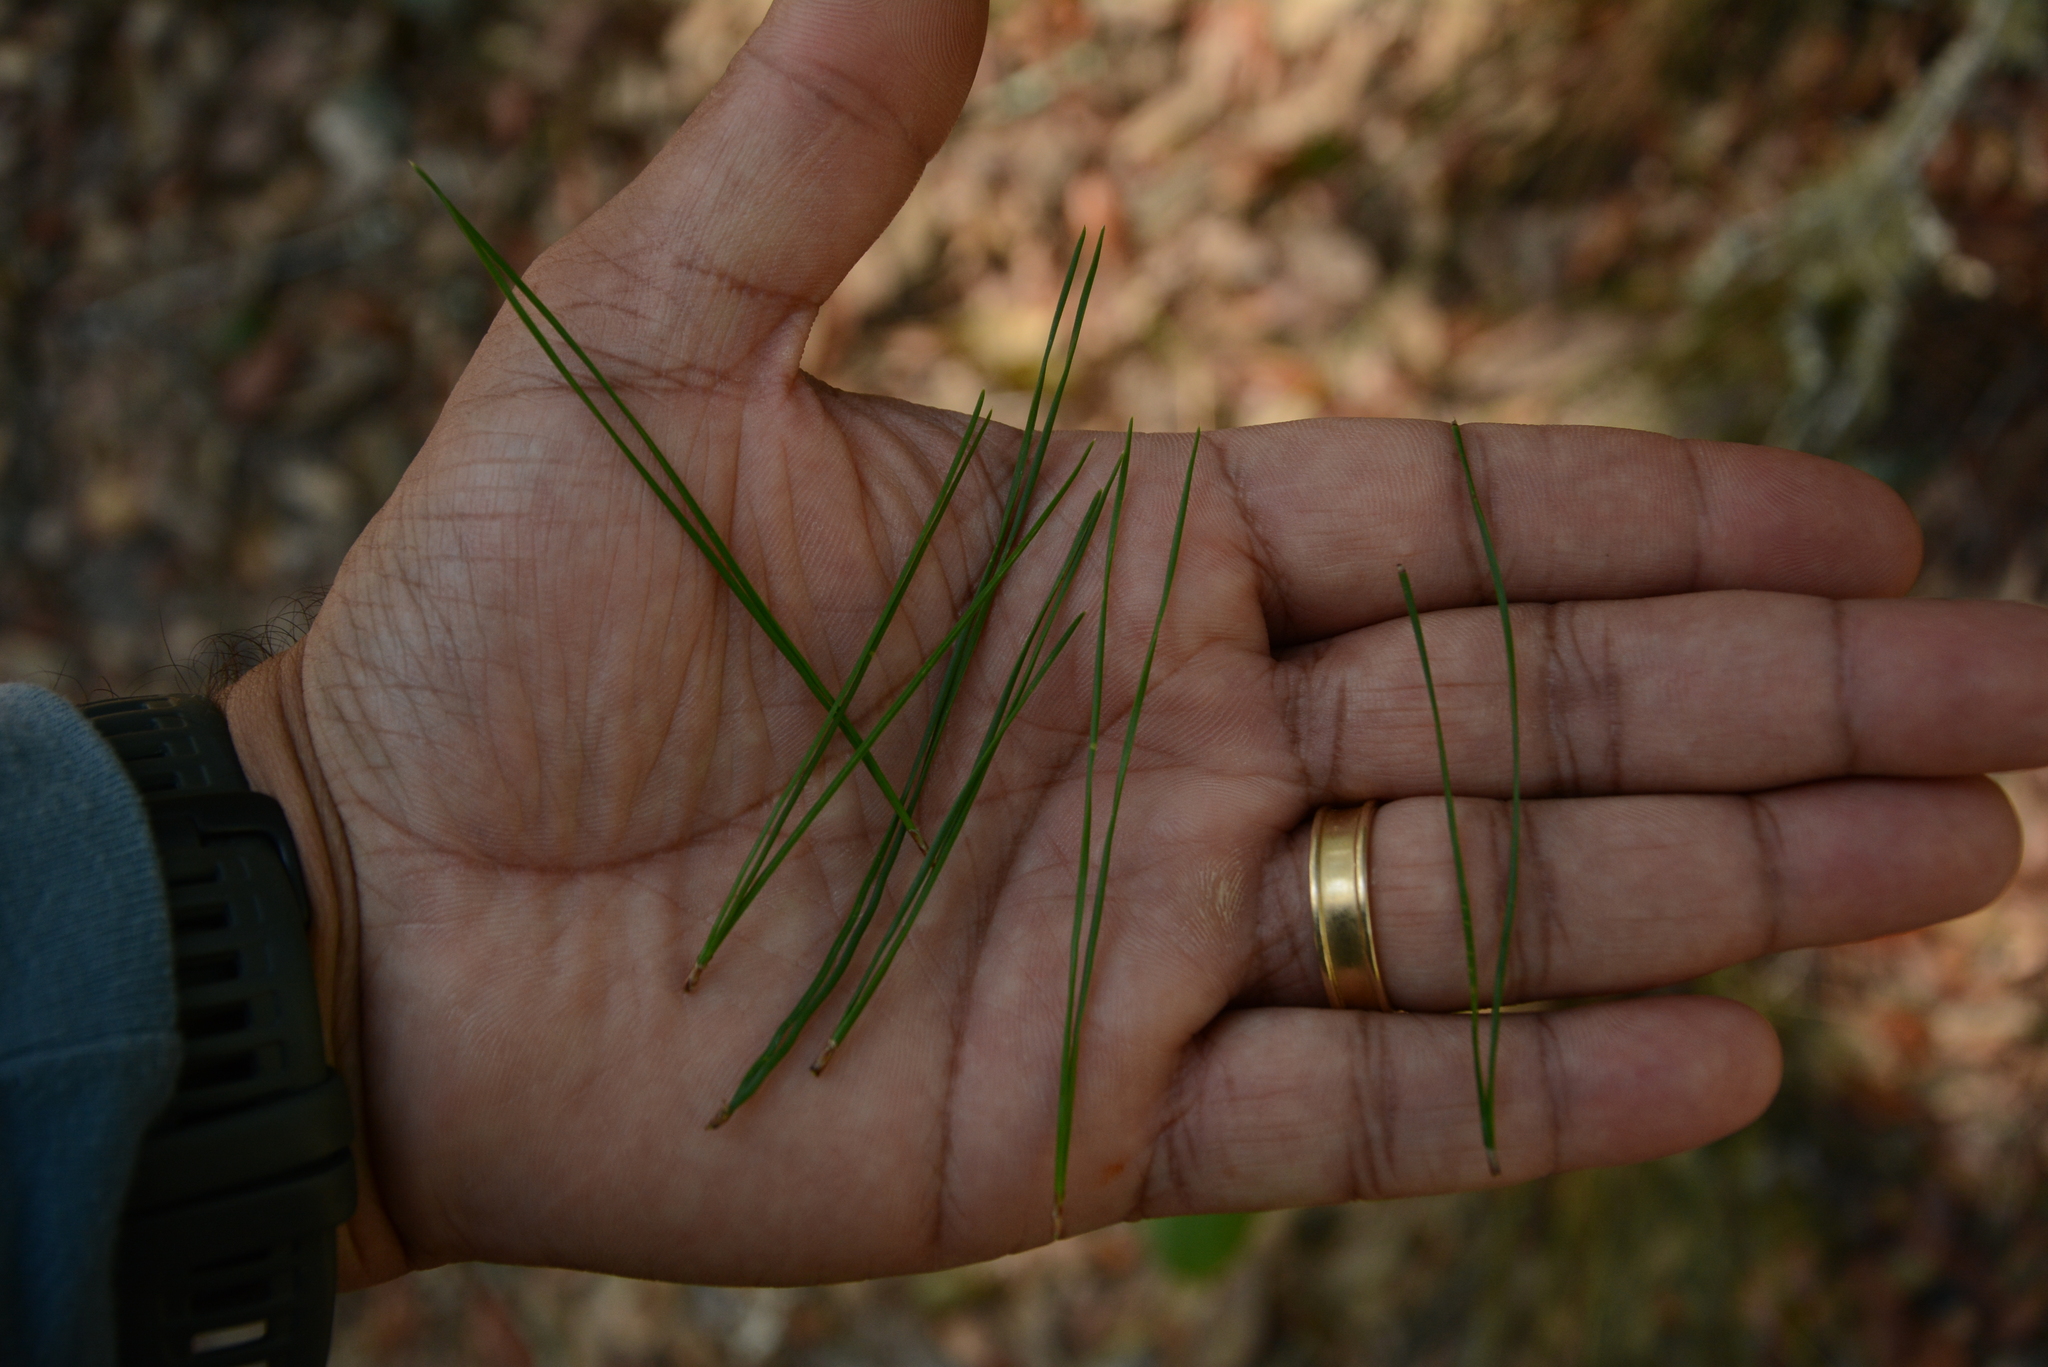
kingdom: Plantae
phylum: Tracheophyta
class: Pinopsida
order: Pinales
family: Pinaceae
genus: Pinus
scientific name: Pinus clausa
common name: Sand pine
